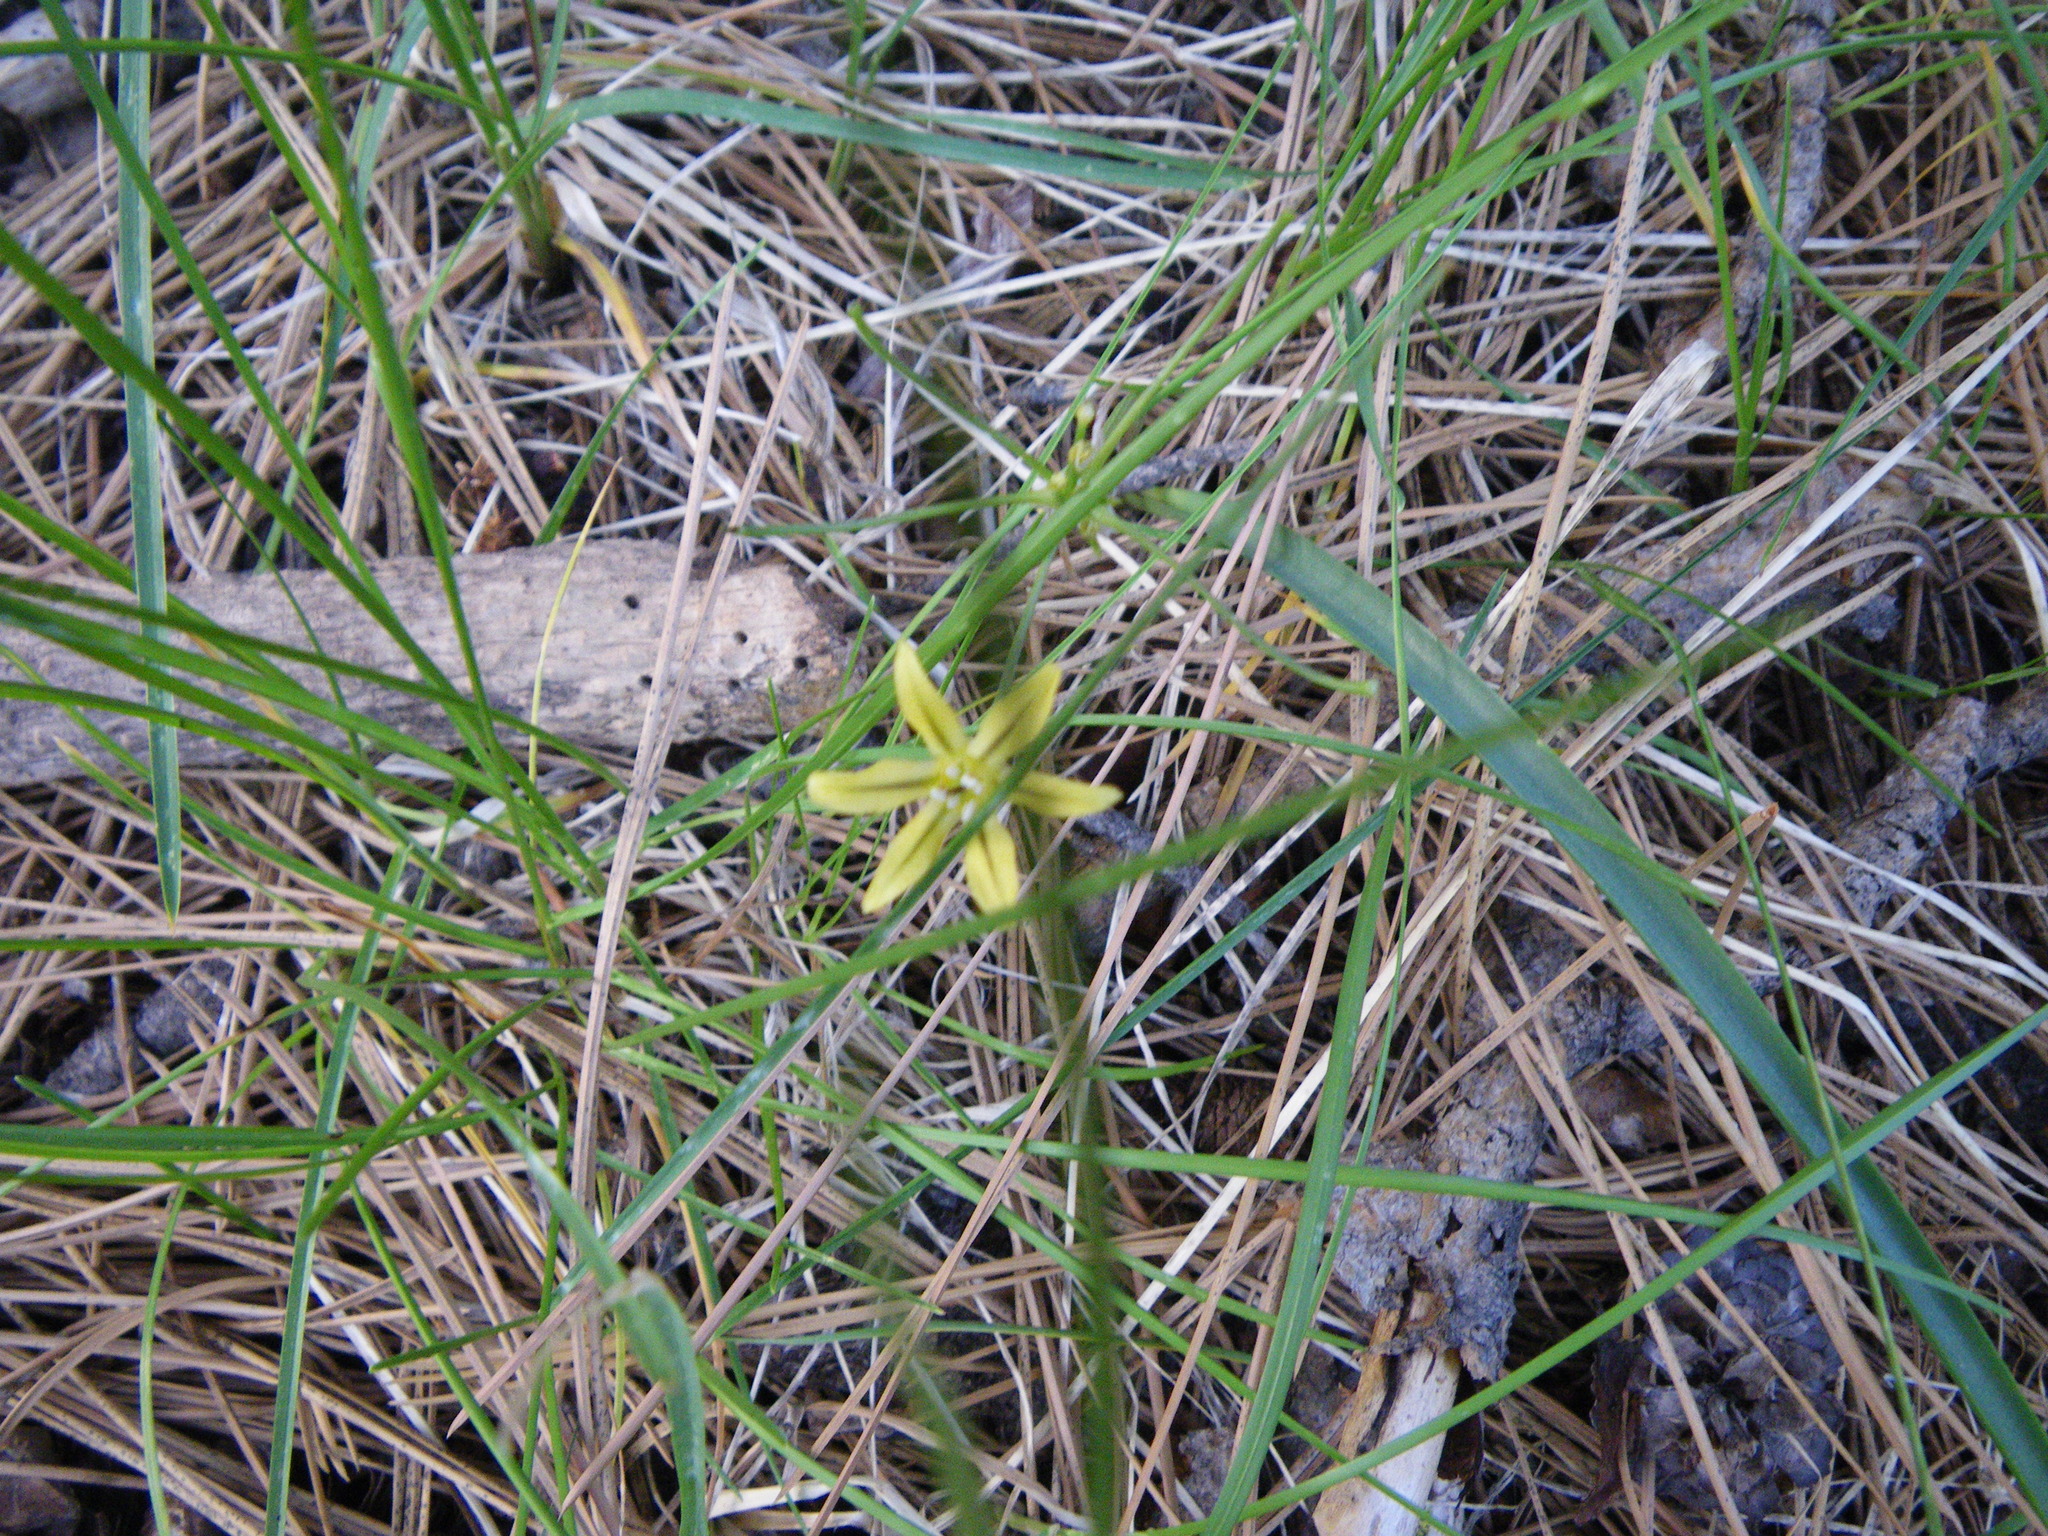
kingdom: Plantae
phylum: Tracheophyta
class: Liliopsida
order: Asparagales
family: Asparagaceae
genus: Triteleia
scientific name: Triteleia ixioides
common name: Yellow-brodiaea
